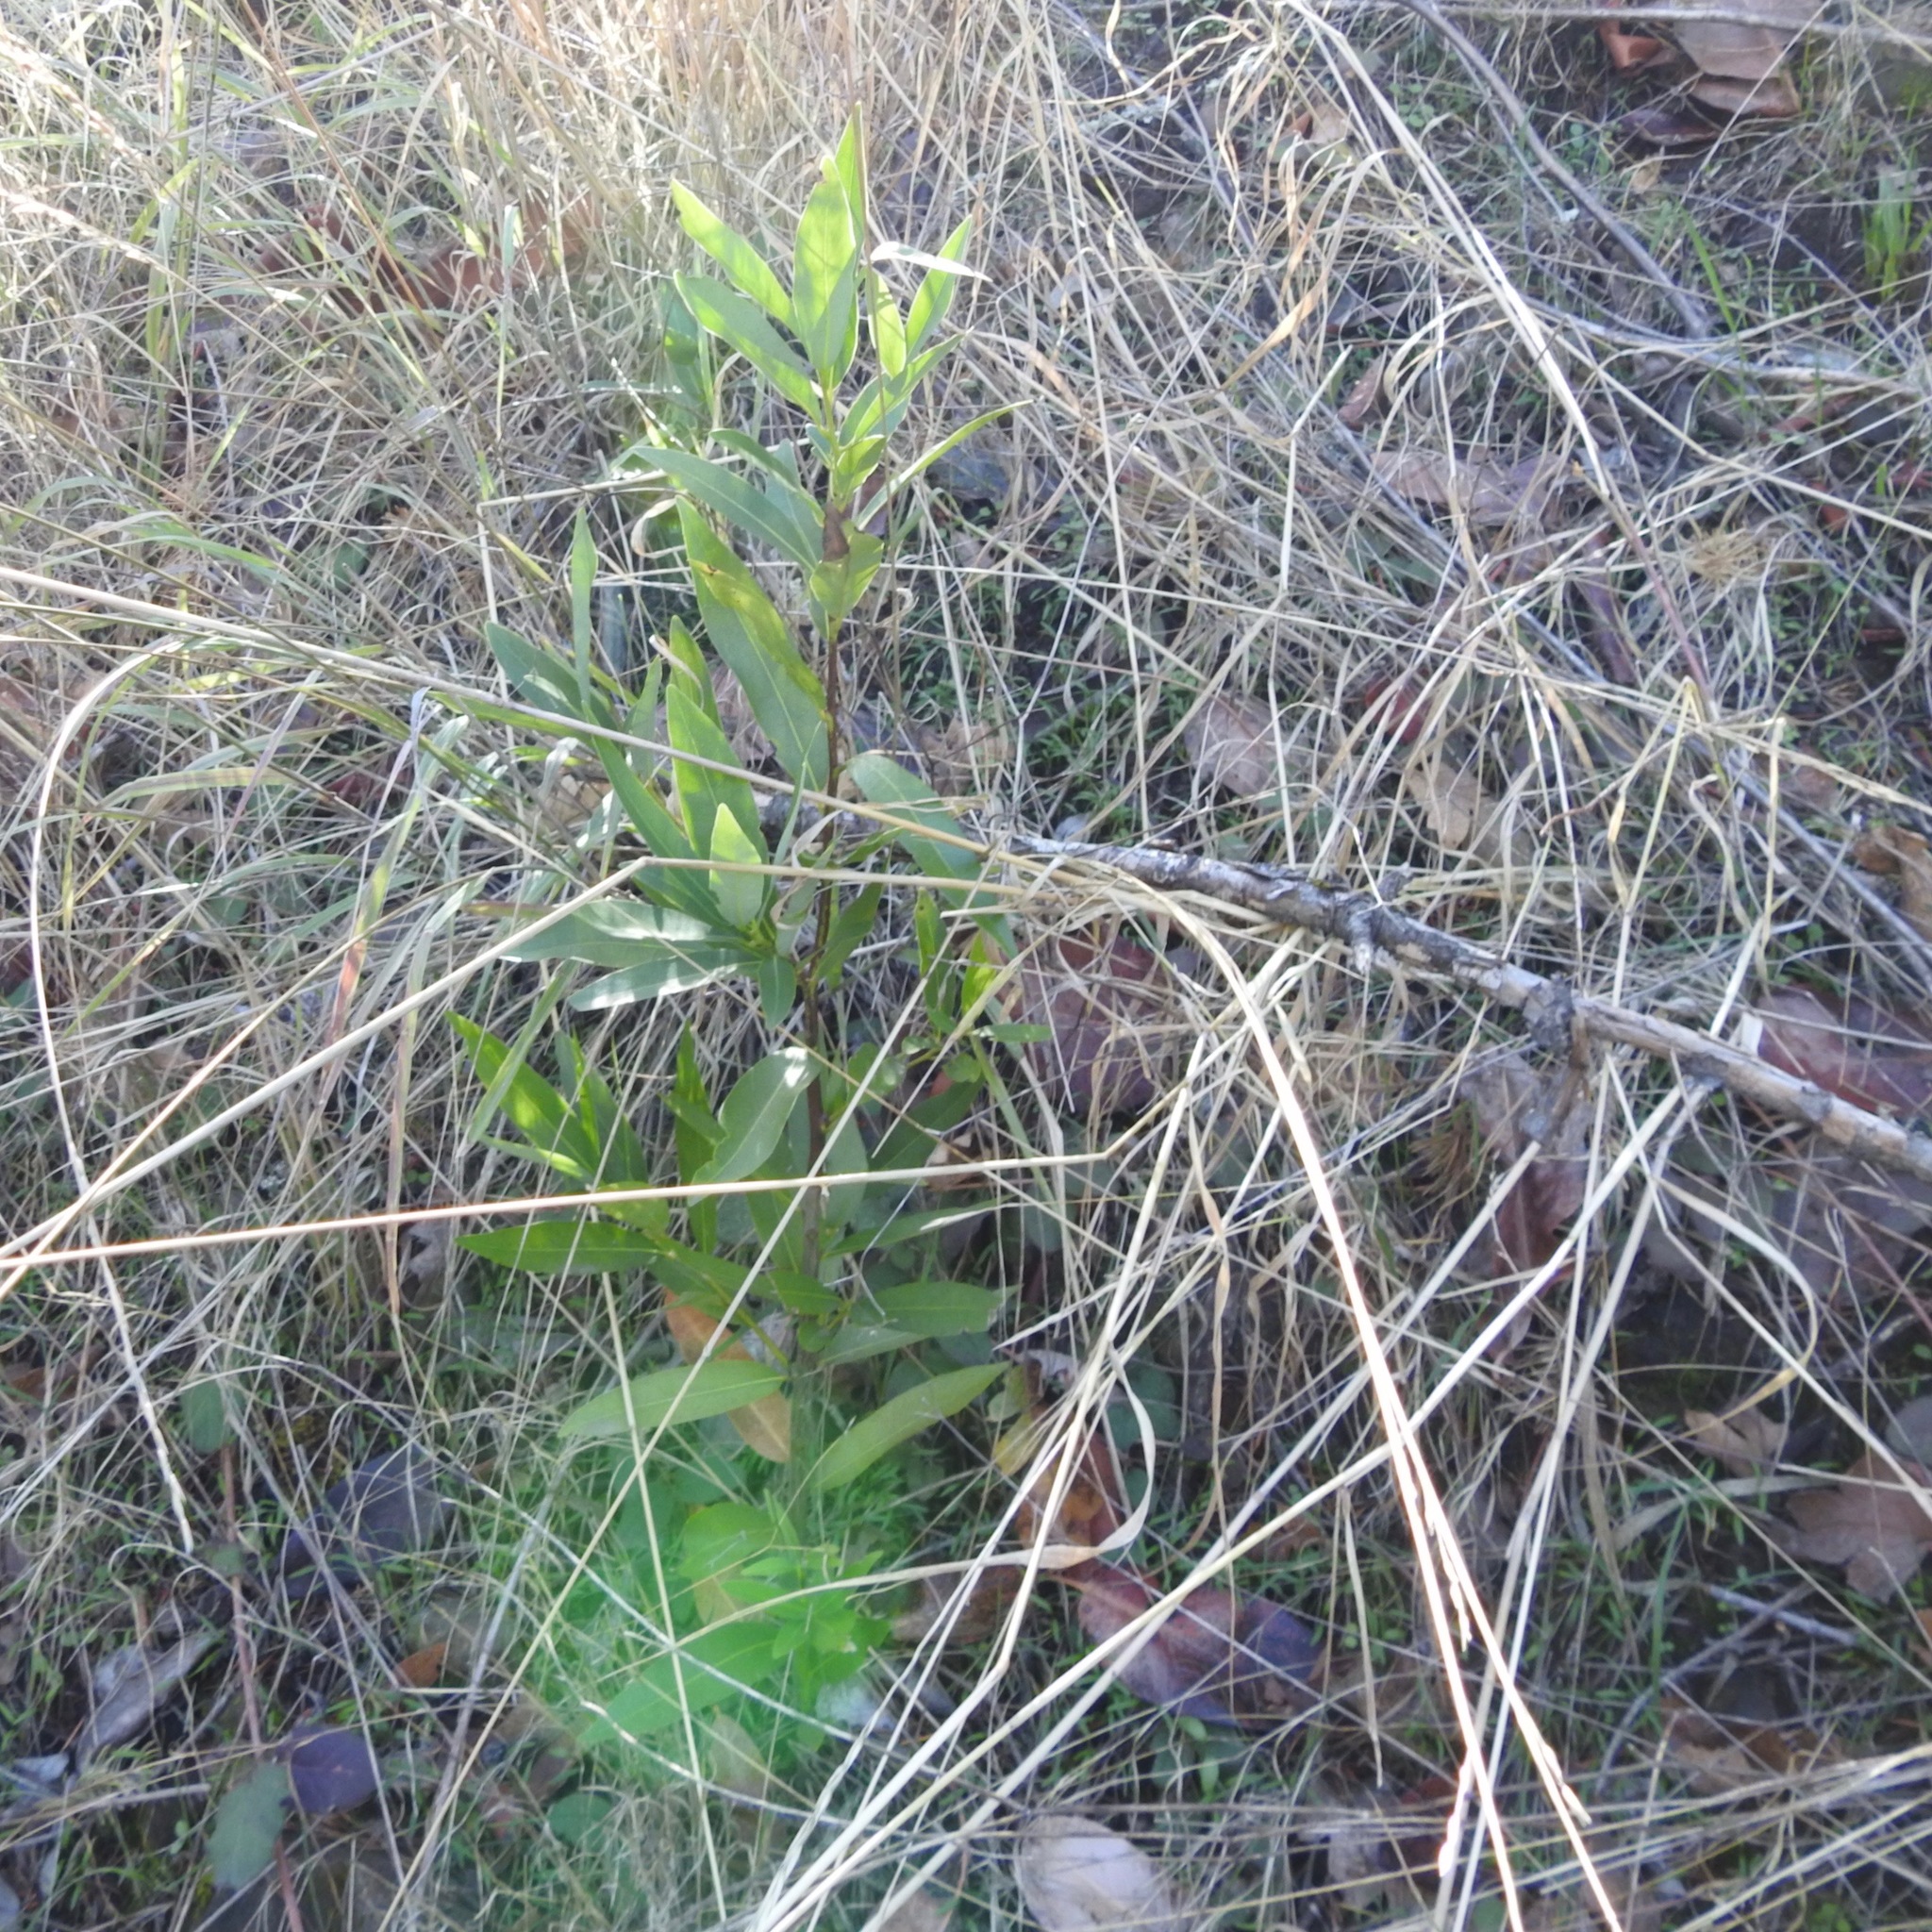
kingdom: Plantae
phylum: Tracheophyta
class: Magnoliopsida
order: Laurales
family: Lauraceae
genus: Umbellularia
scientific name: Umbellularia californica
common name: California bay
